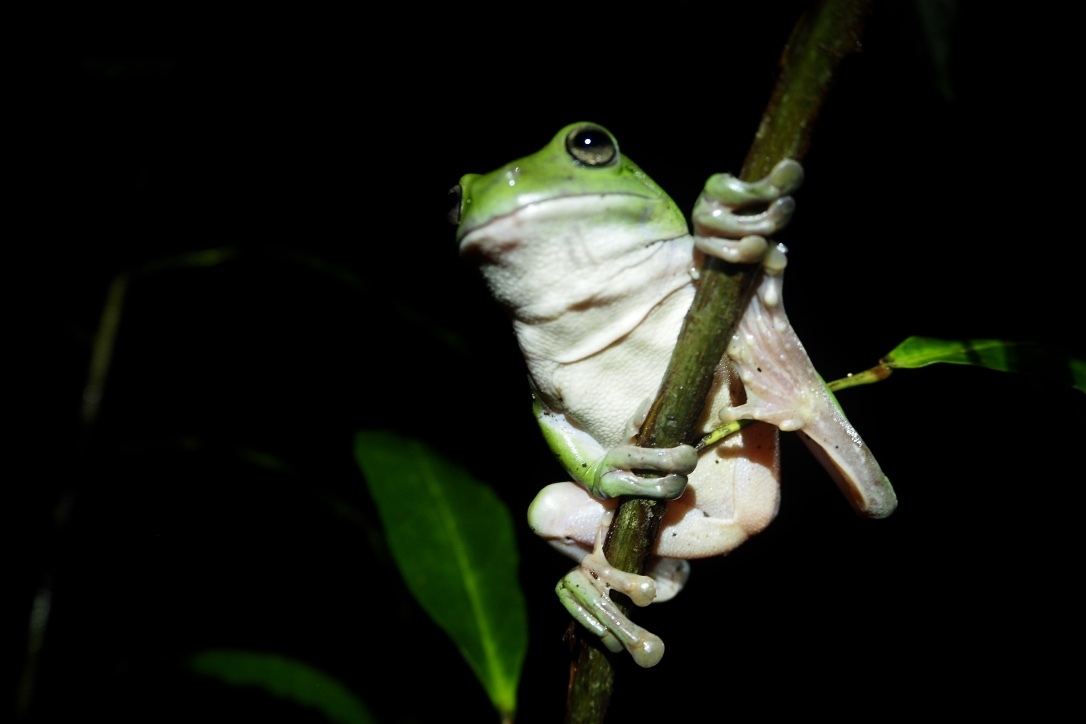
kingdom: Animalia
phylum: Chordata
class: Amphibia
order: Anura
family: Pelodryadidae
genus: Ranoidea
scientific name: Ranoidea caerulea
